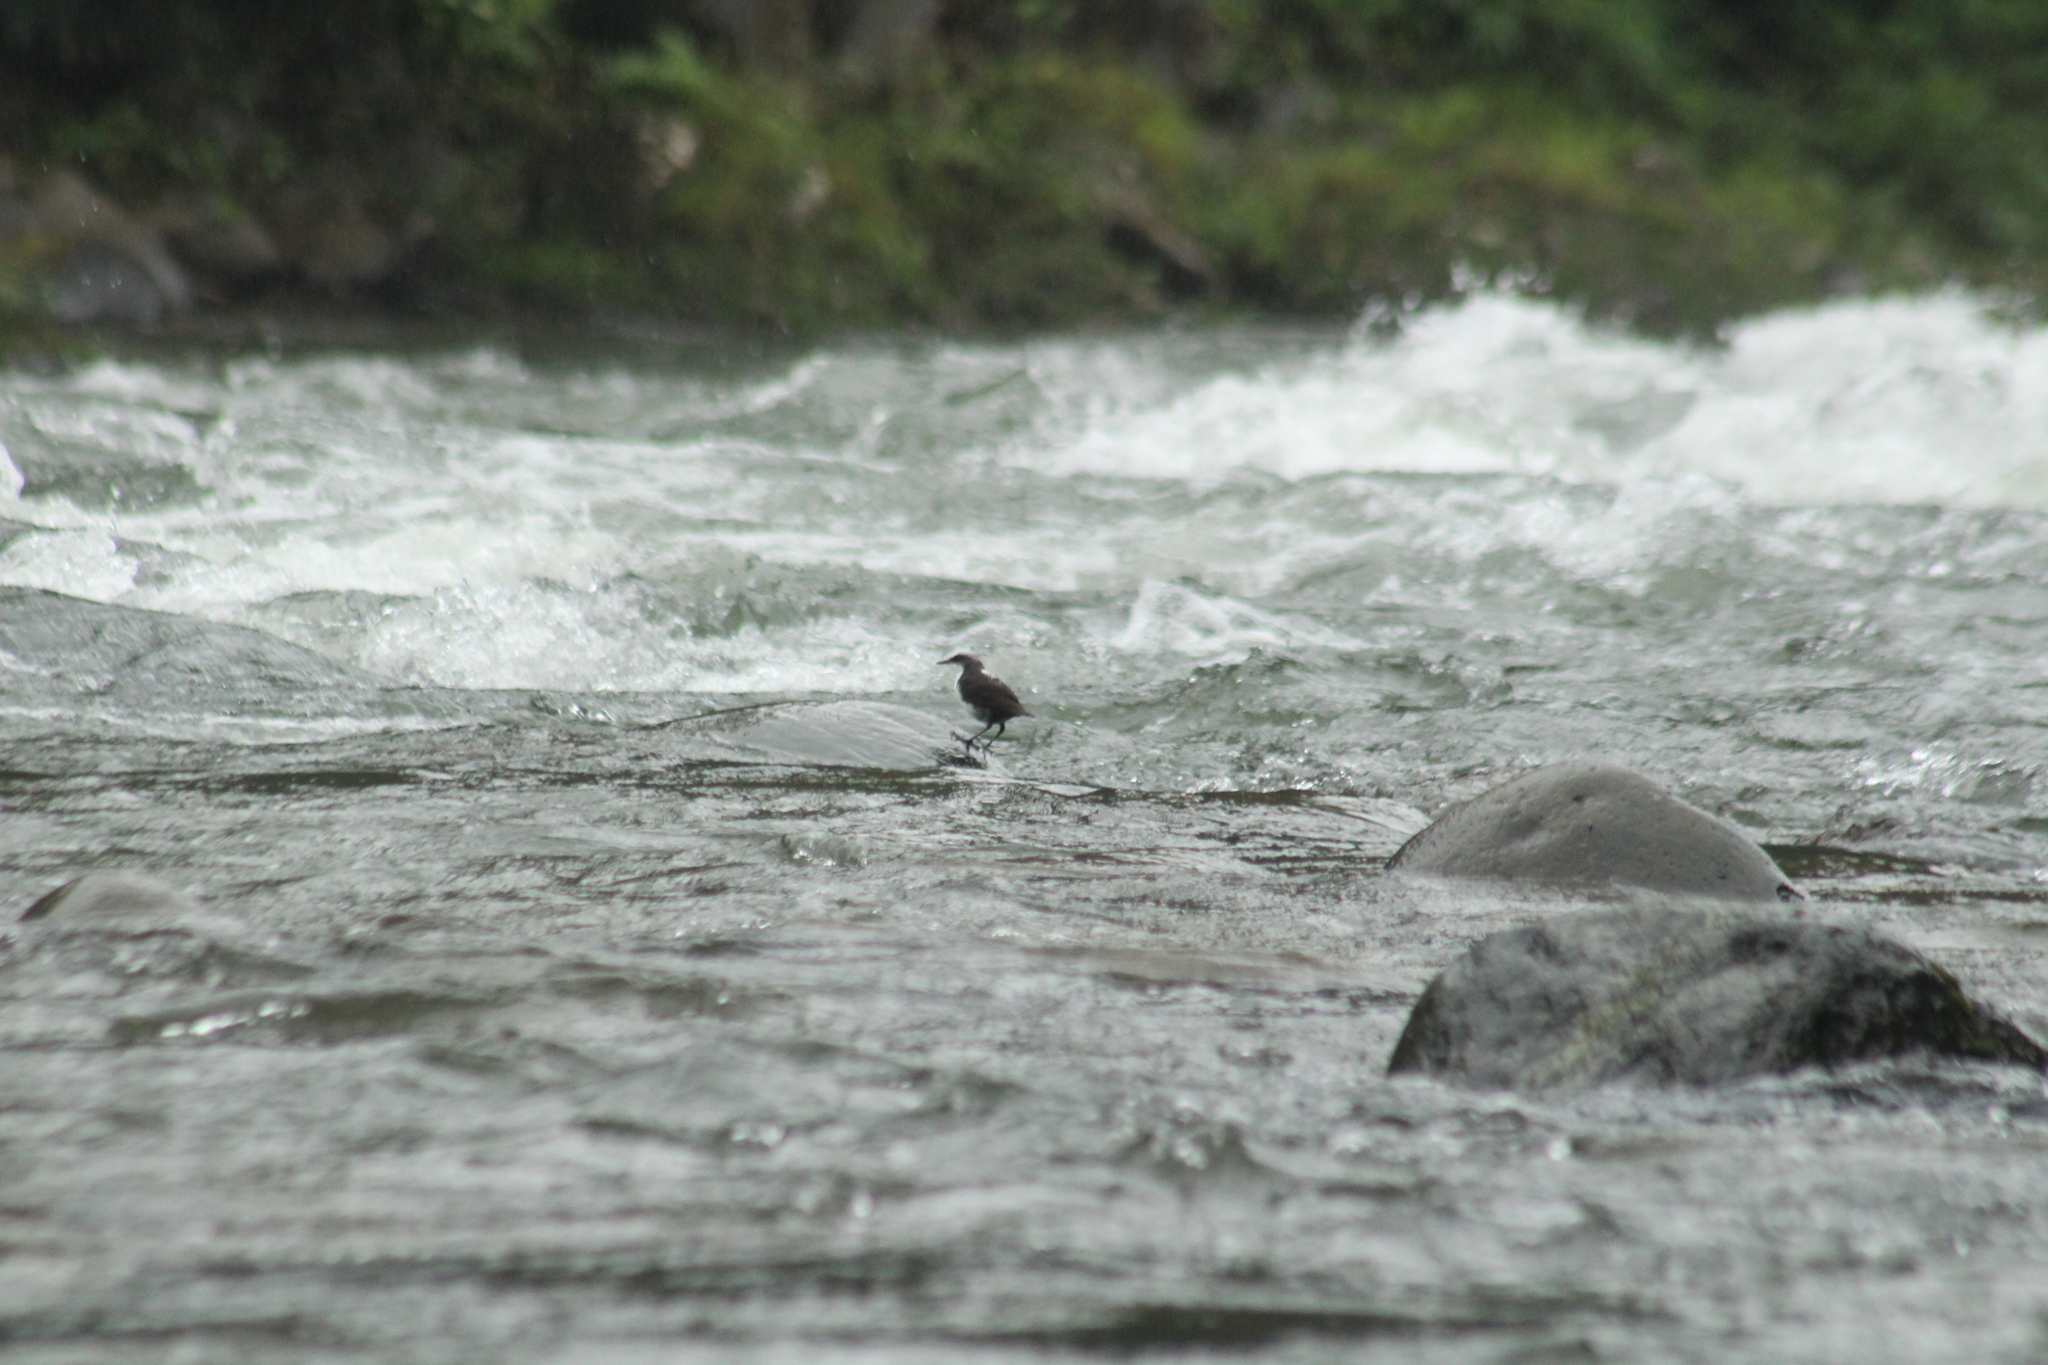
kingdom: Animalia
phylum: Chordata
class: Aves
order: Passeriformes
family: Cinclidae
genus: Cinclus
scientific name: Cinclus leucocephalus
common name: White-capped dipper
